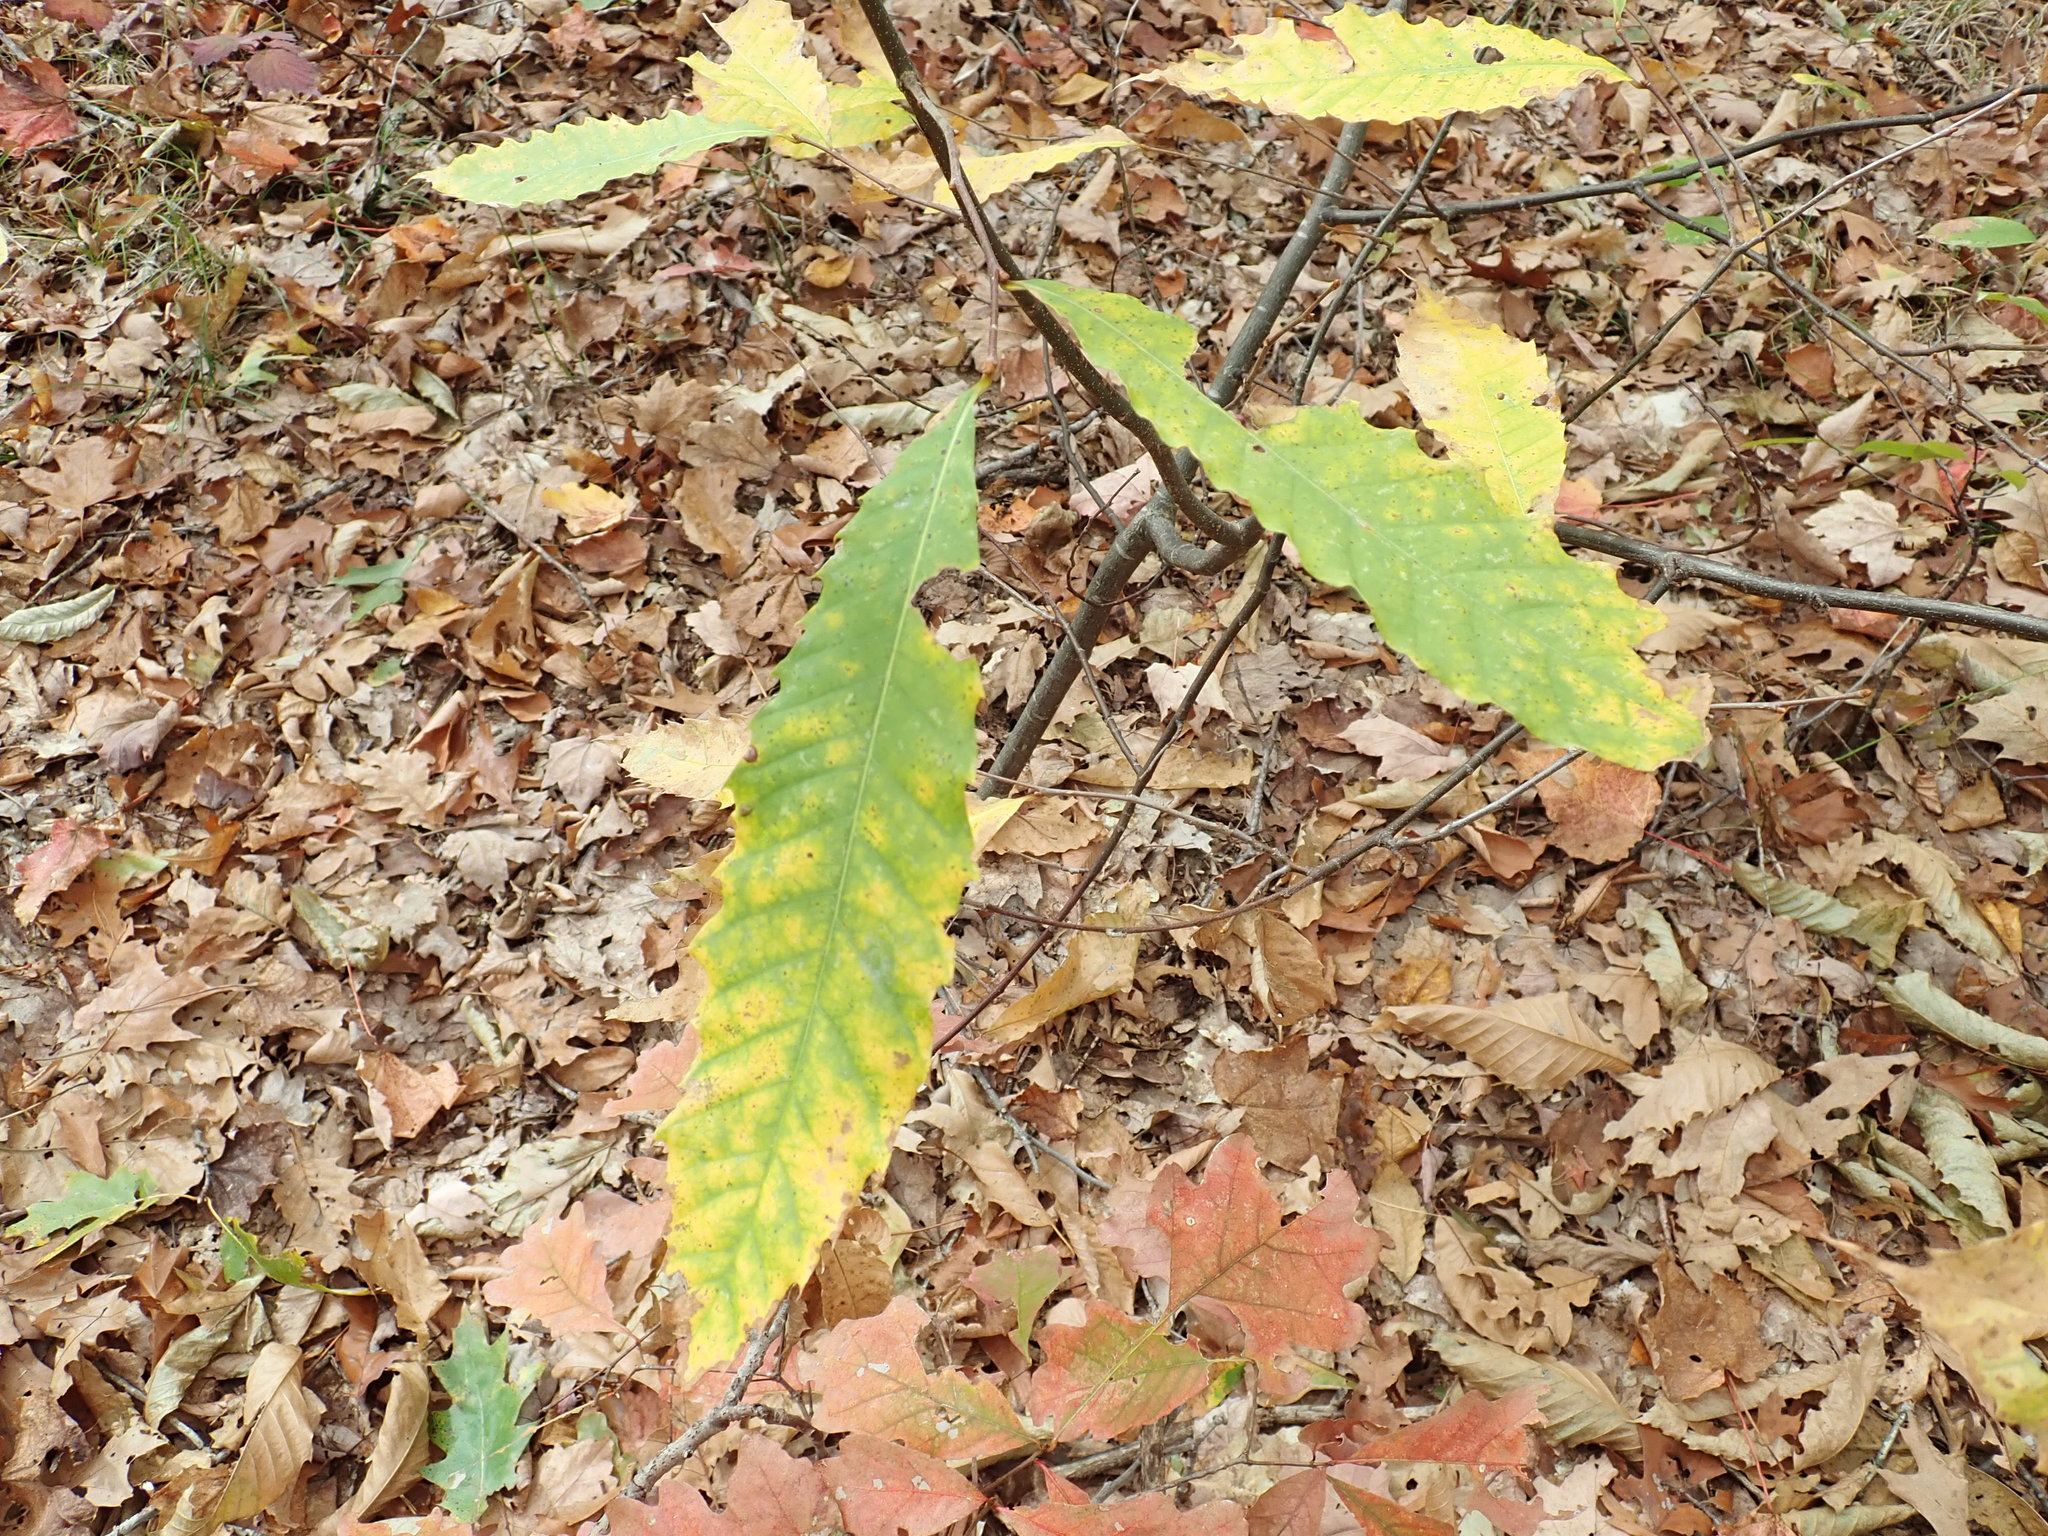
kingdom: Plantae
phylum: Tracheophyta
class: Magnoliopsida
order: Fagales
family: Fagaceae
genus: Castanea
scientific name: Castanea dentata
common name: American chestnut
